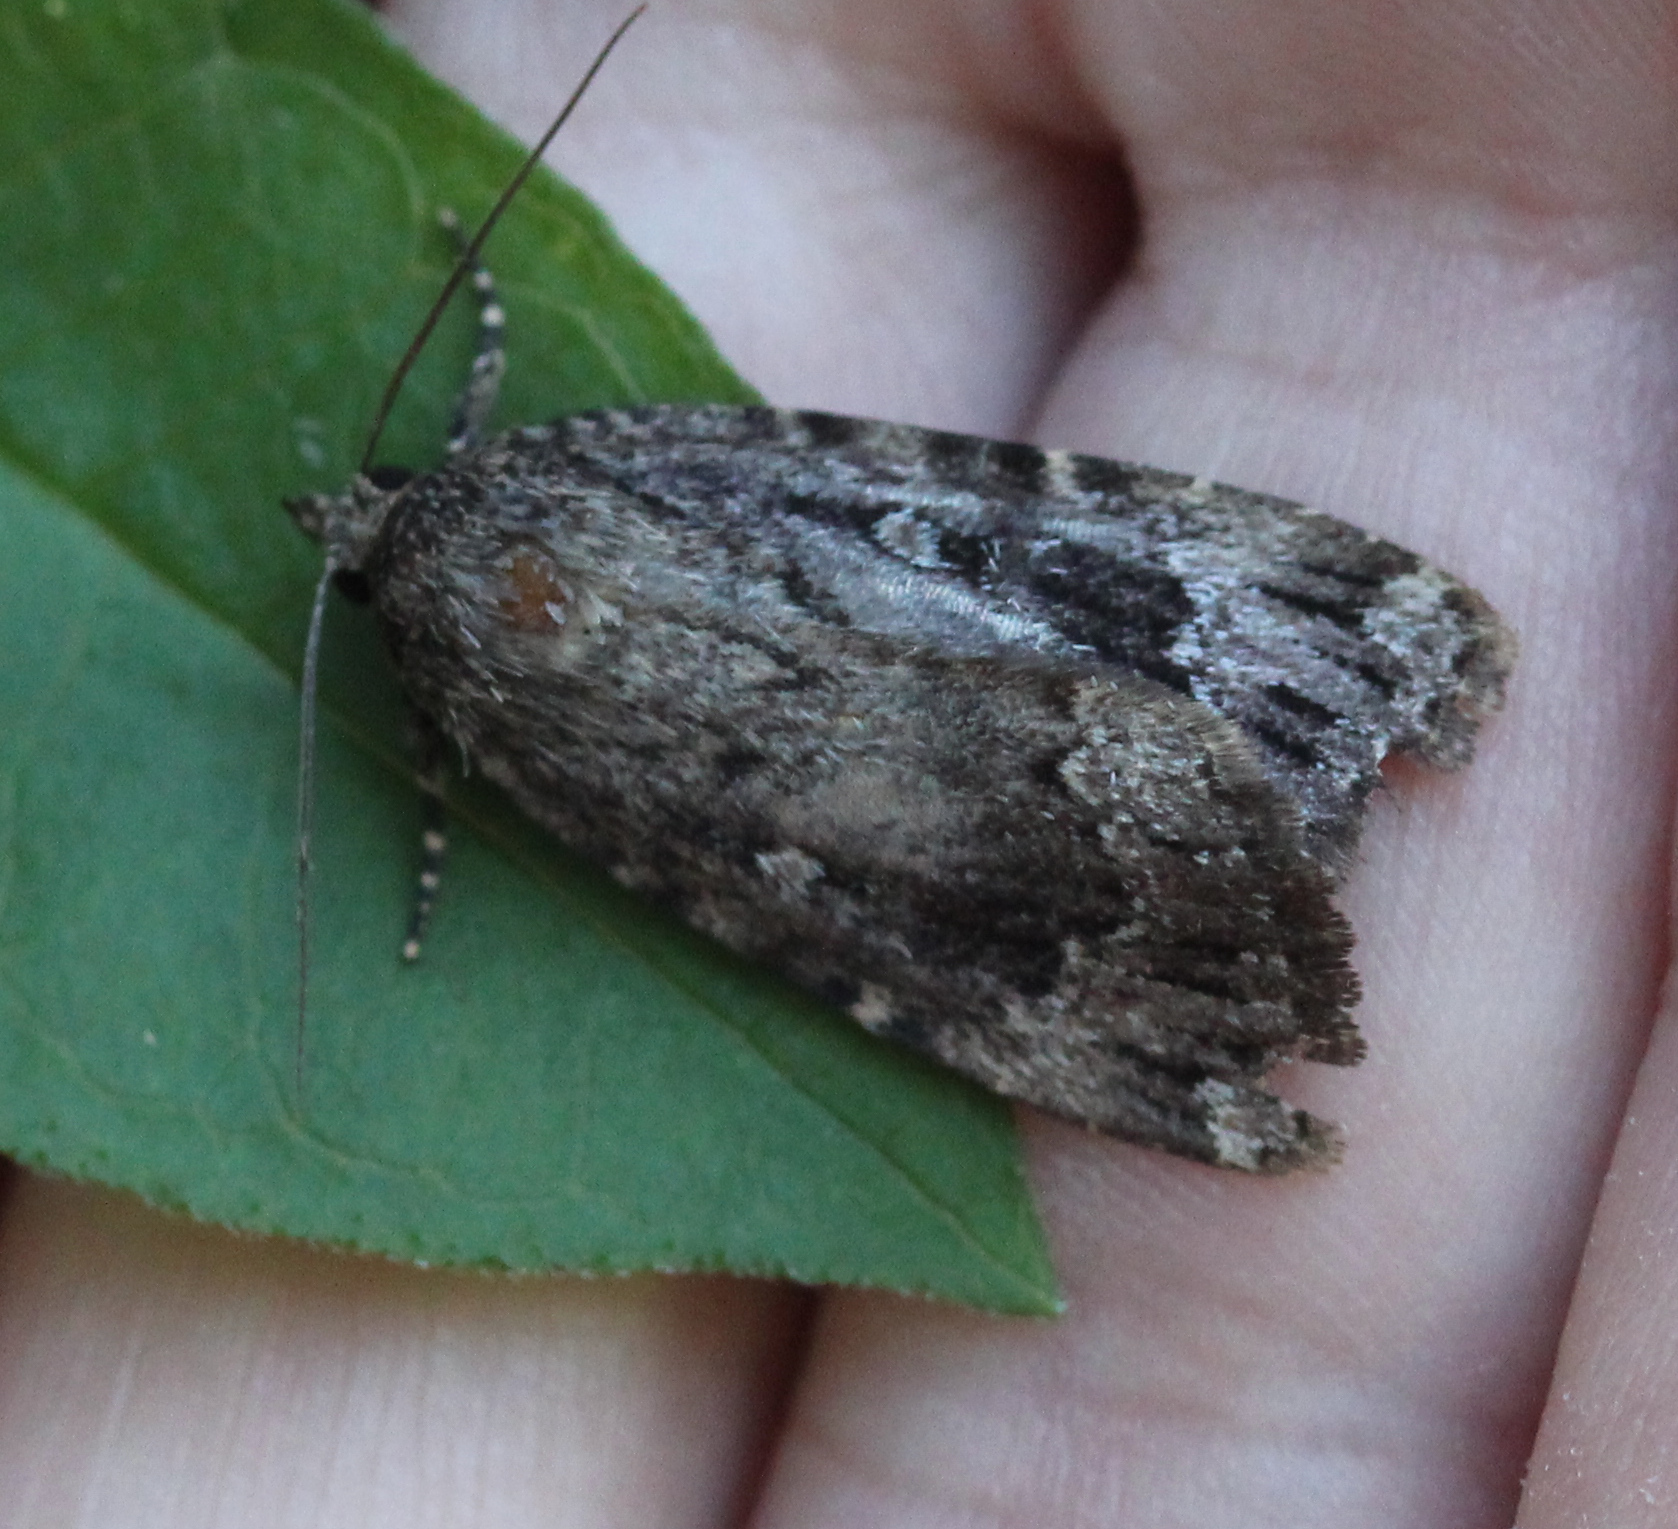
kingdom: Animalia
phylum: Arthropoda
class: Insecta
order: Lepidoptera
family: Noctuidae
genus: Amphipyra
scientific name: Amphipyra pyramidoides
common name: American copper underwing
